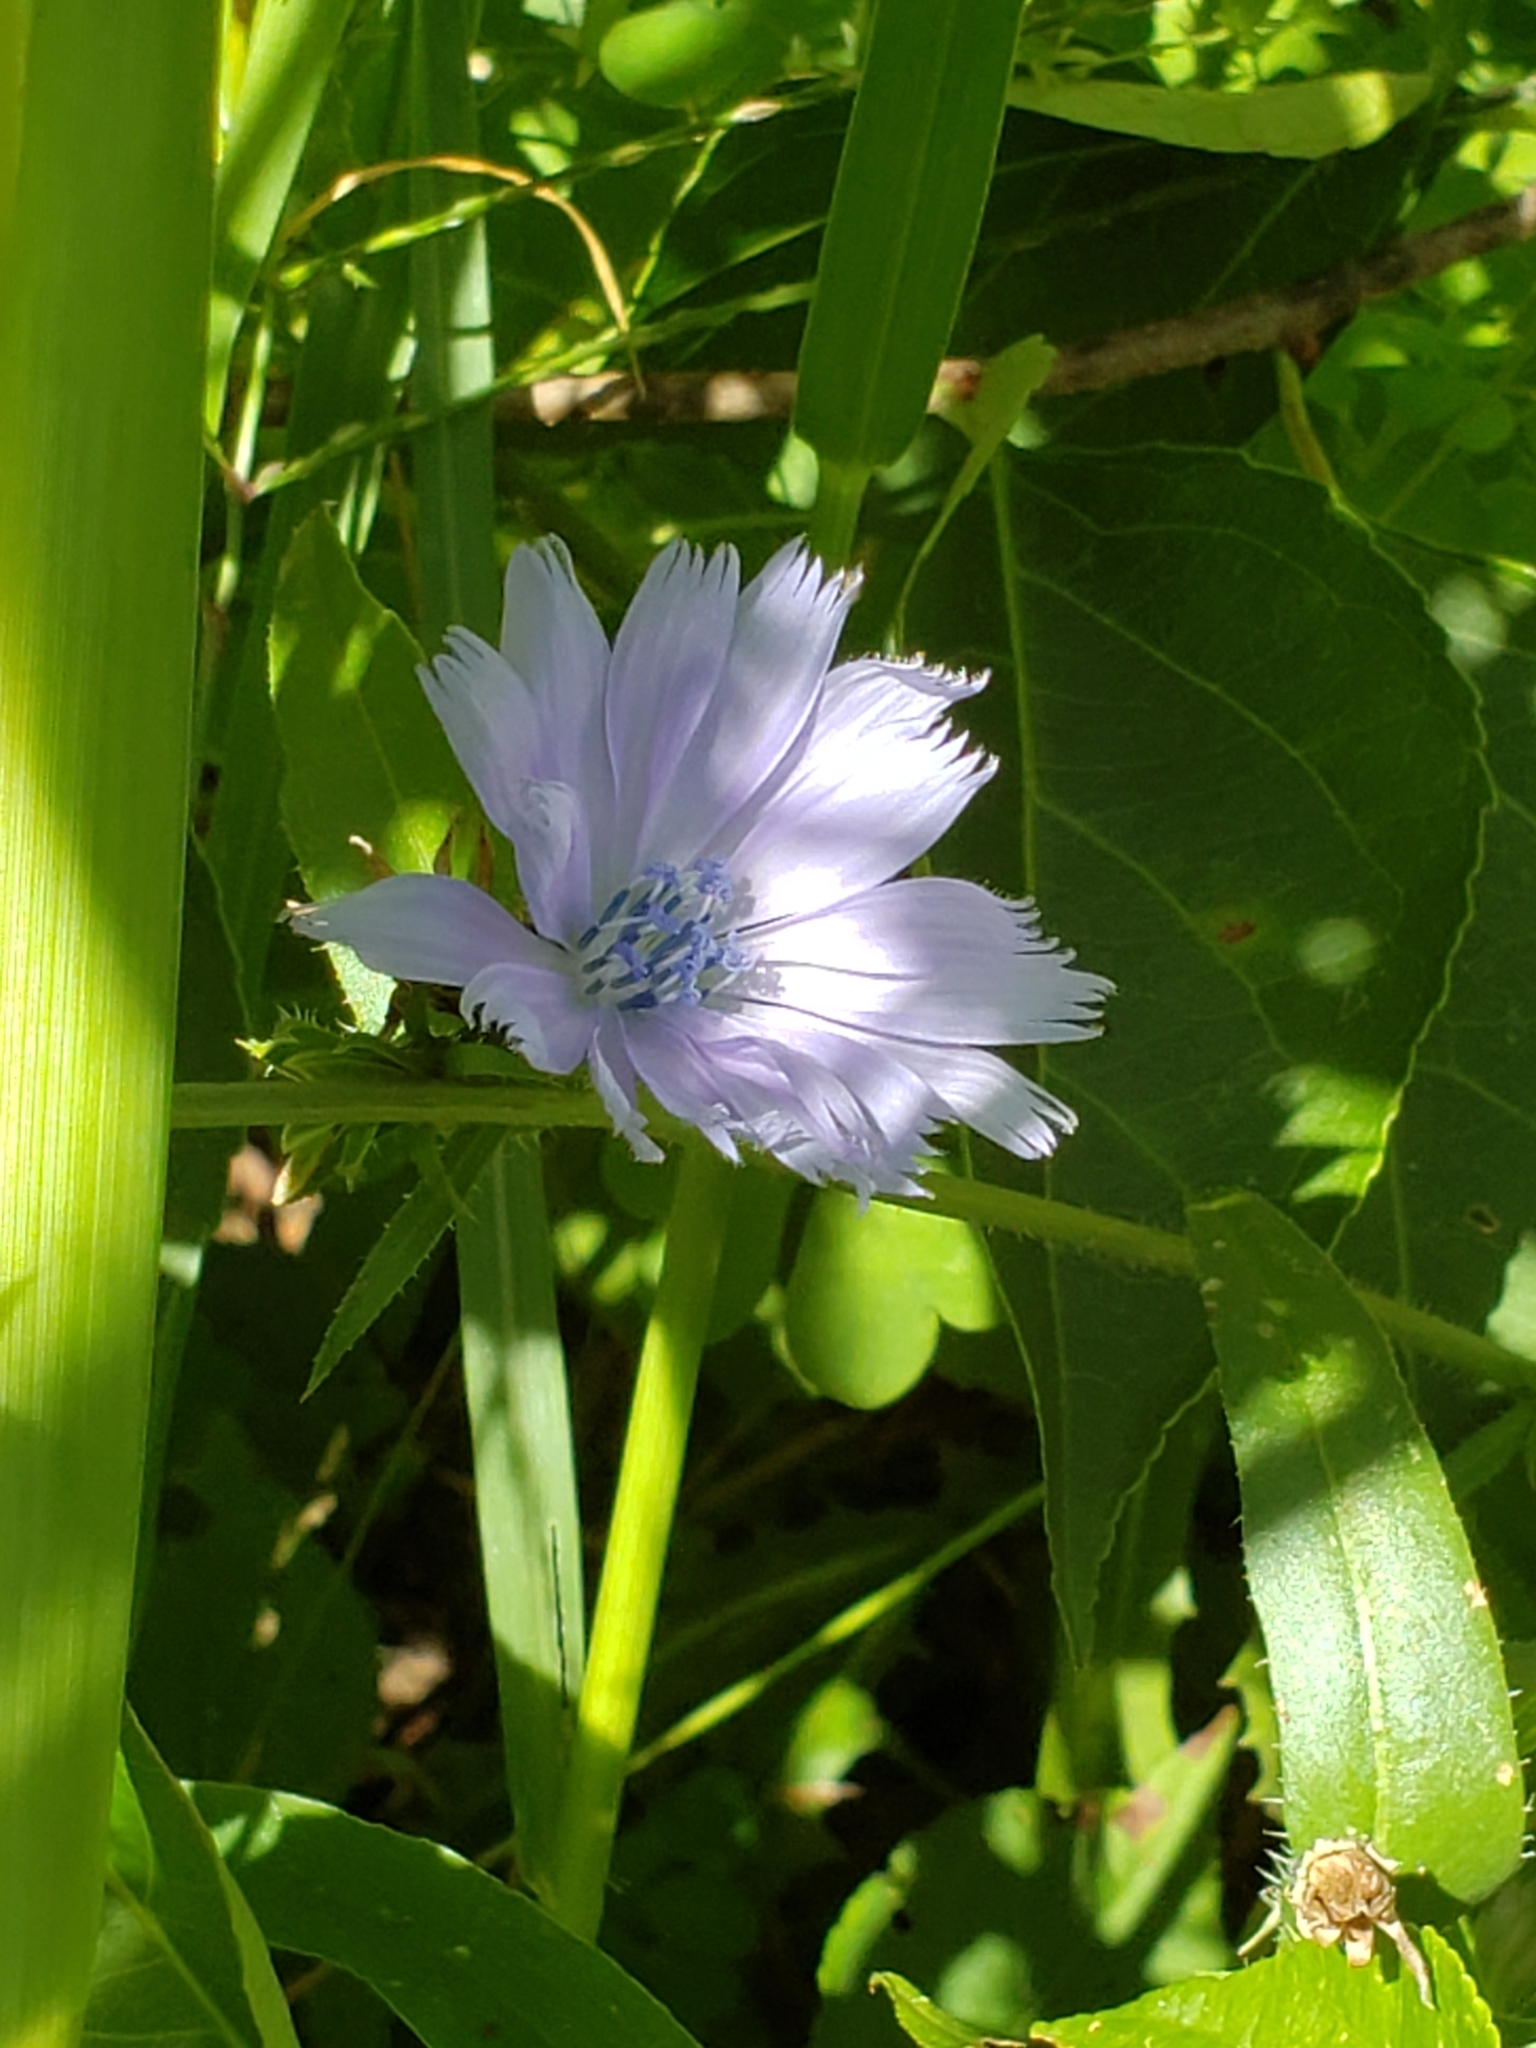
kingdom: Plantae
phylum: Tracheophyta
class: Magnoliopsida
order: Asterales
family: Asteraceae
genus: Cichorium
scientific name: Cichorium intybus
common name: Chicory
